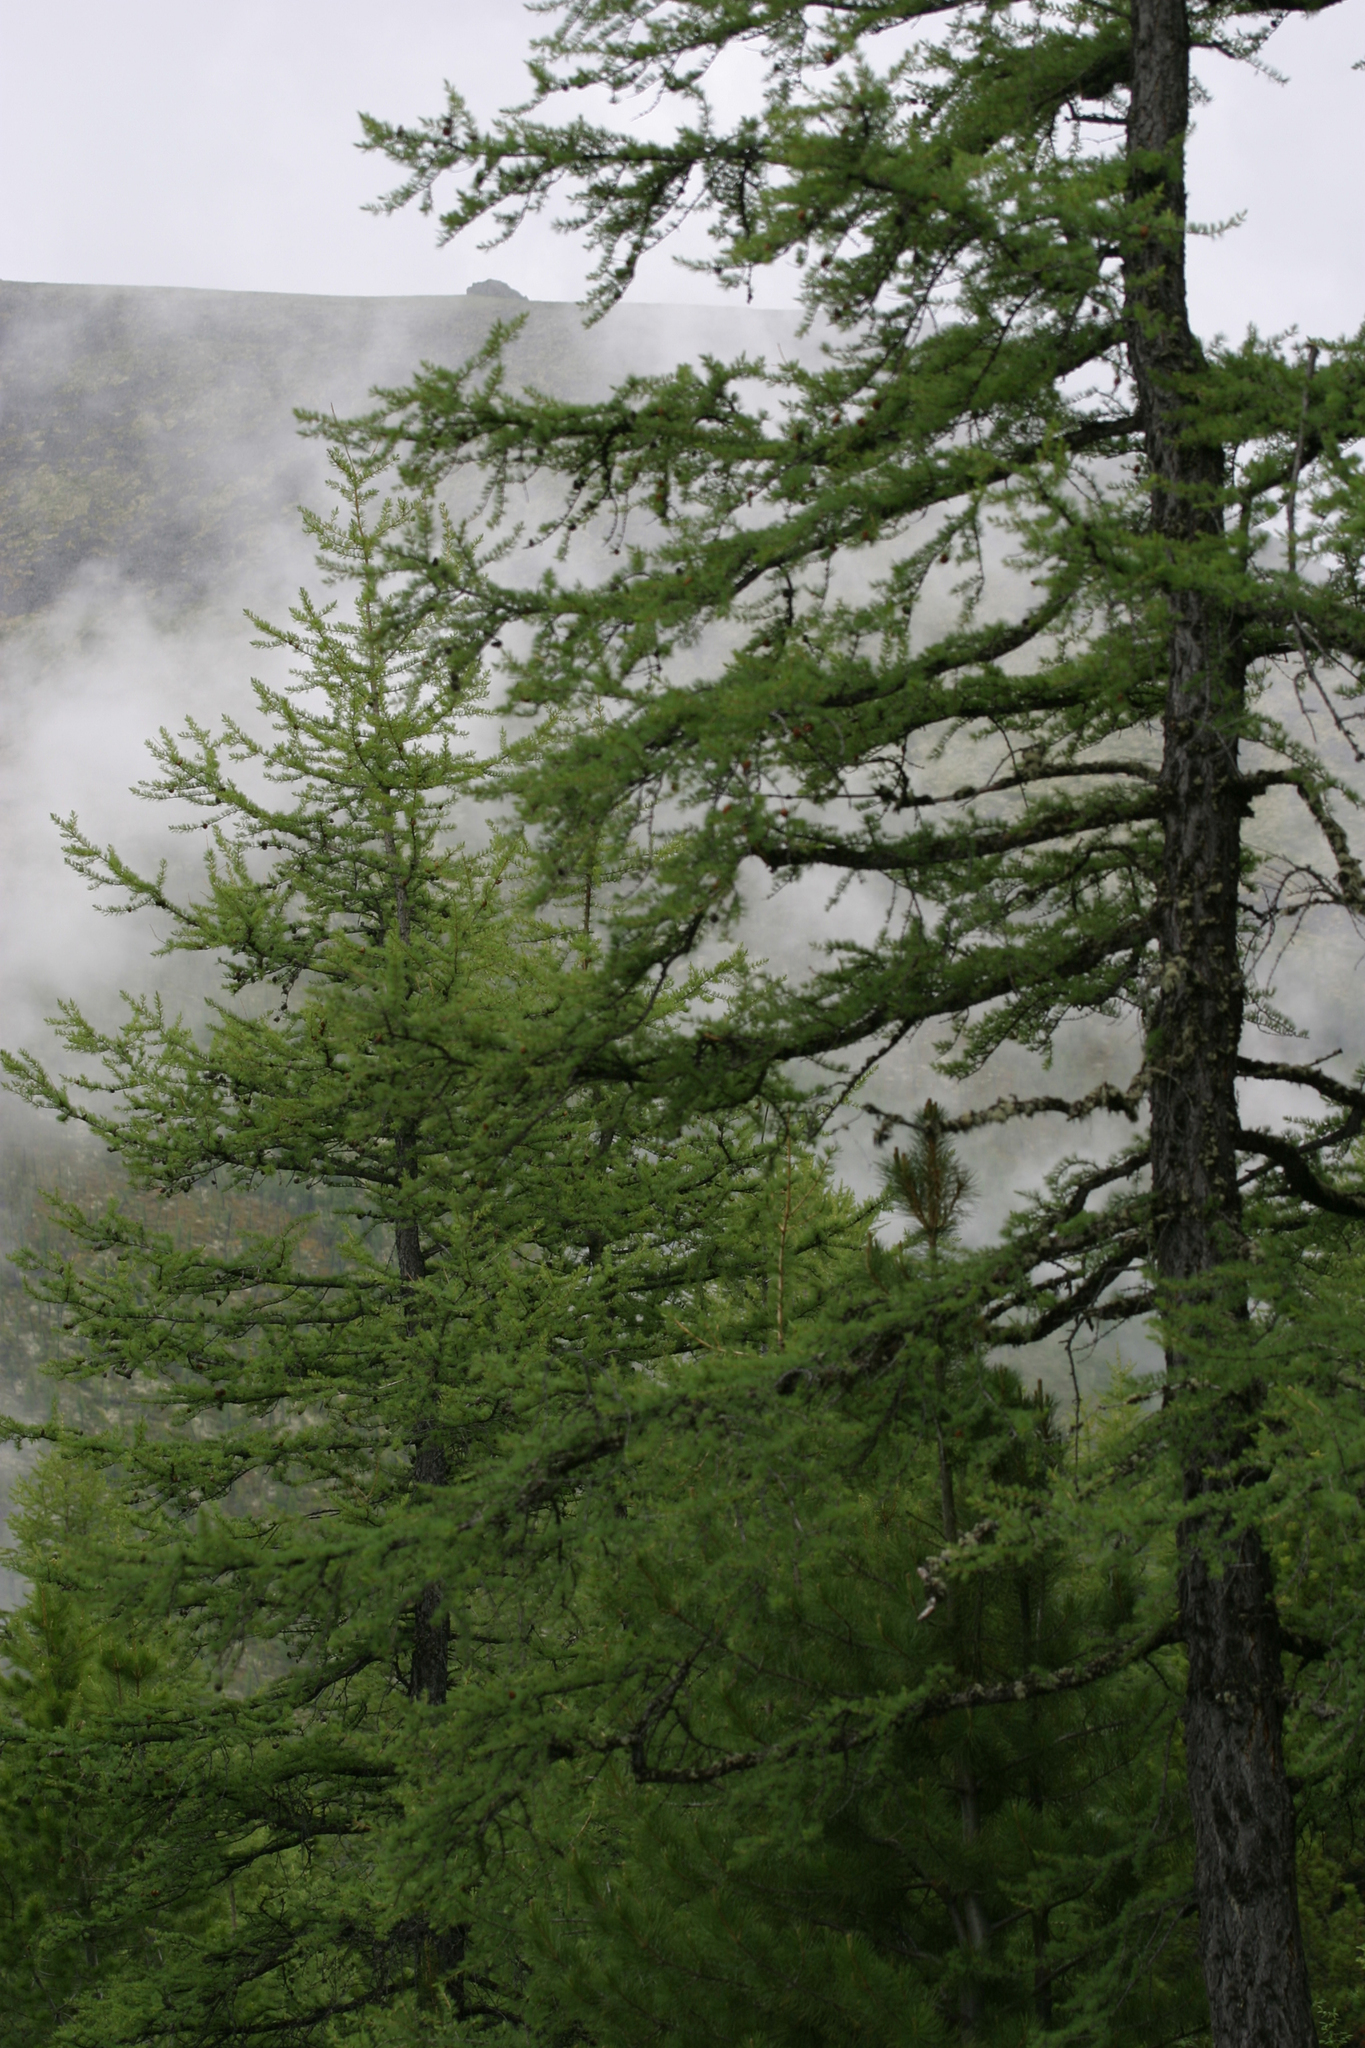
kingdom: Plantae
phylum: Tracheophyta
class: Pinopsida
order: Pinales
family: Pinaceae
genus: Larix
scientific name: Larix sibirica
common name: Siberian larch
